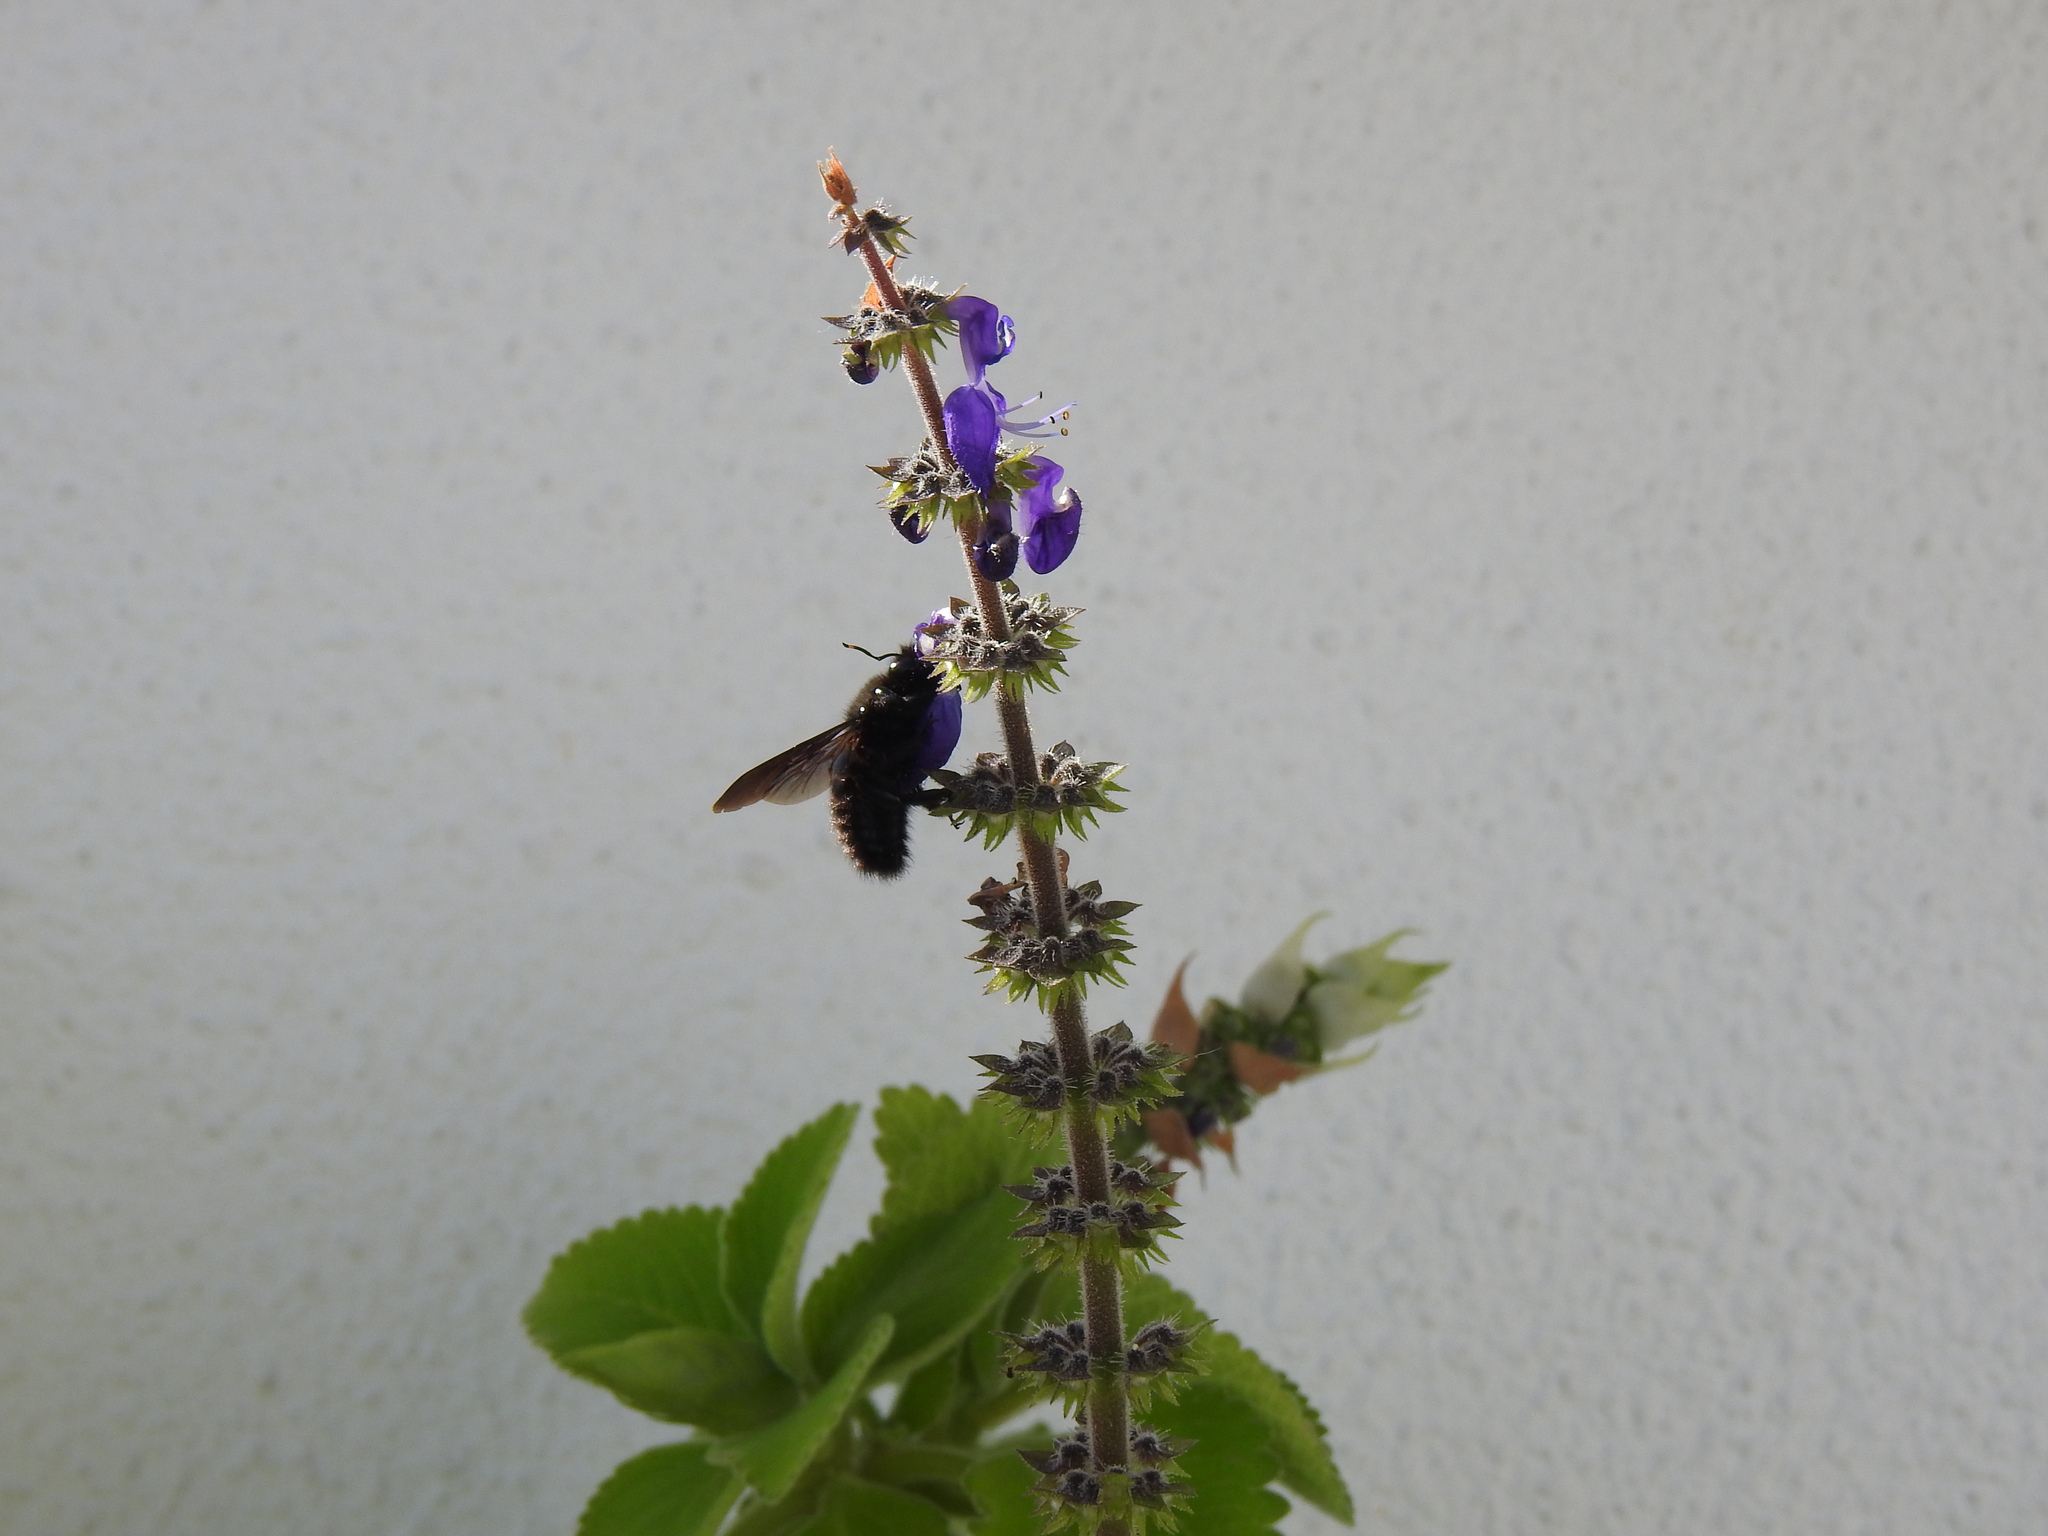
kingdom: Animalia
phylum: Arthropoda
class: Insecta
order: Hymenoptera
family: Apidae
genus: Xylocopa
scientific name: Xylocopa violacea
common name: Violet carpenter bee
